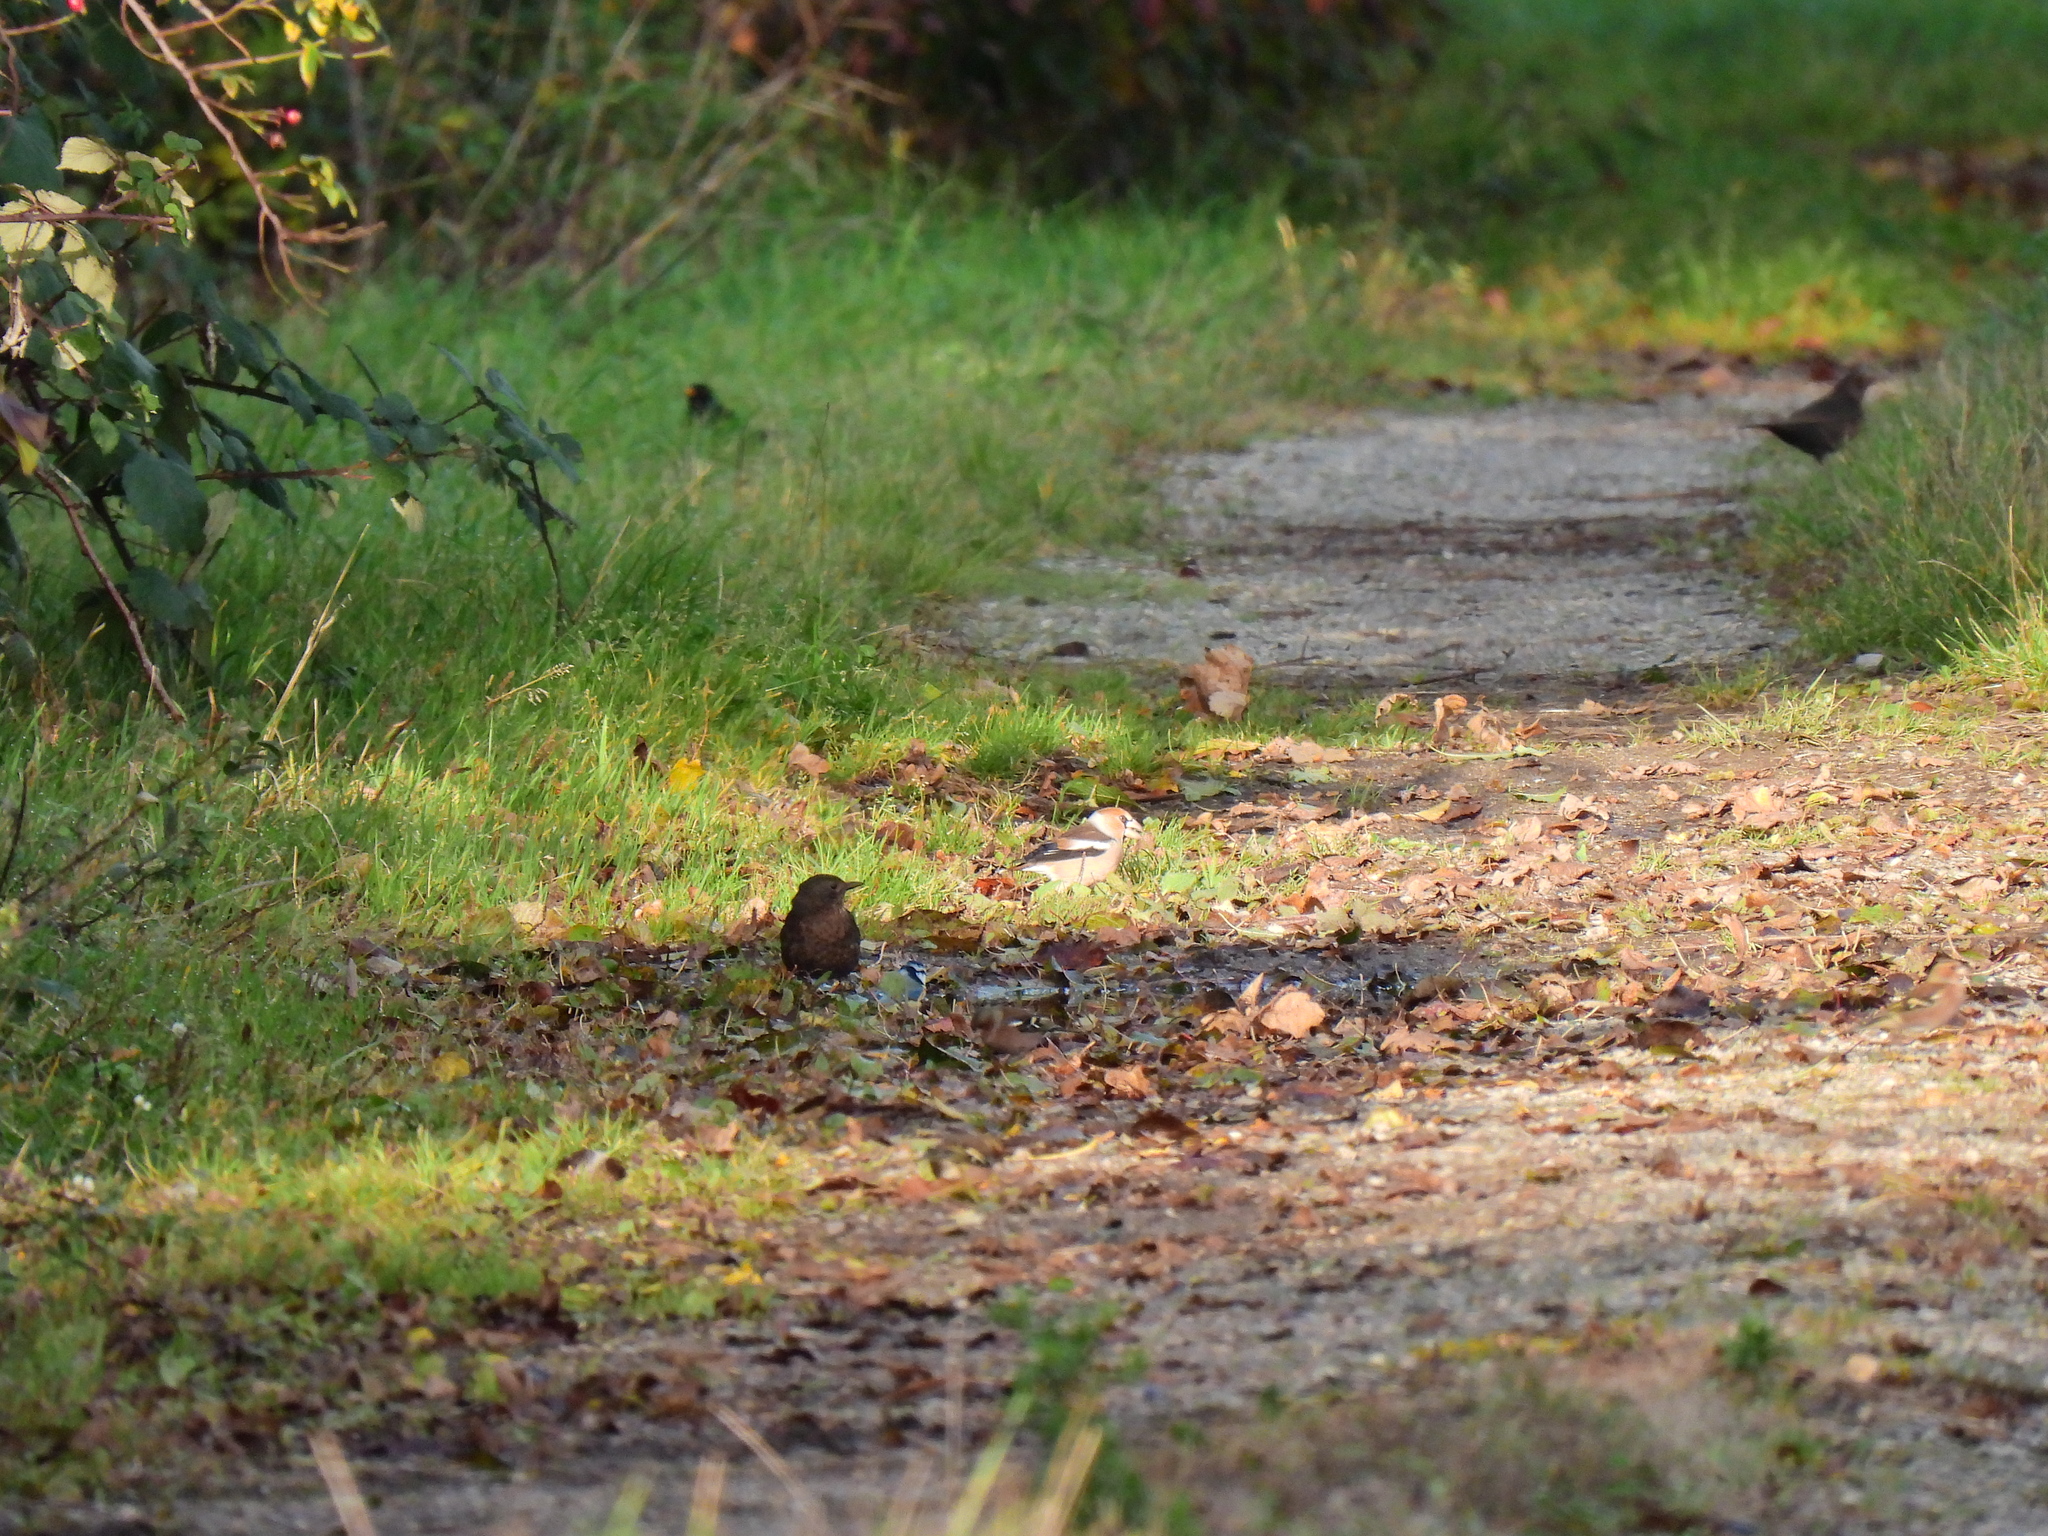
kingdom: Animalia
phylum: Chordata
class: Aves
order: Passeriformes
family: Fringillidae
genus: Coccothraustes
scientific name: Coccothraustes coccothraustes
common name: Hawfinch
